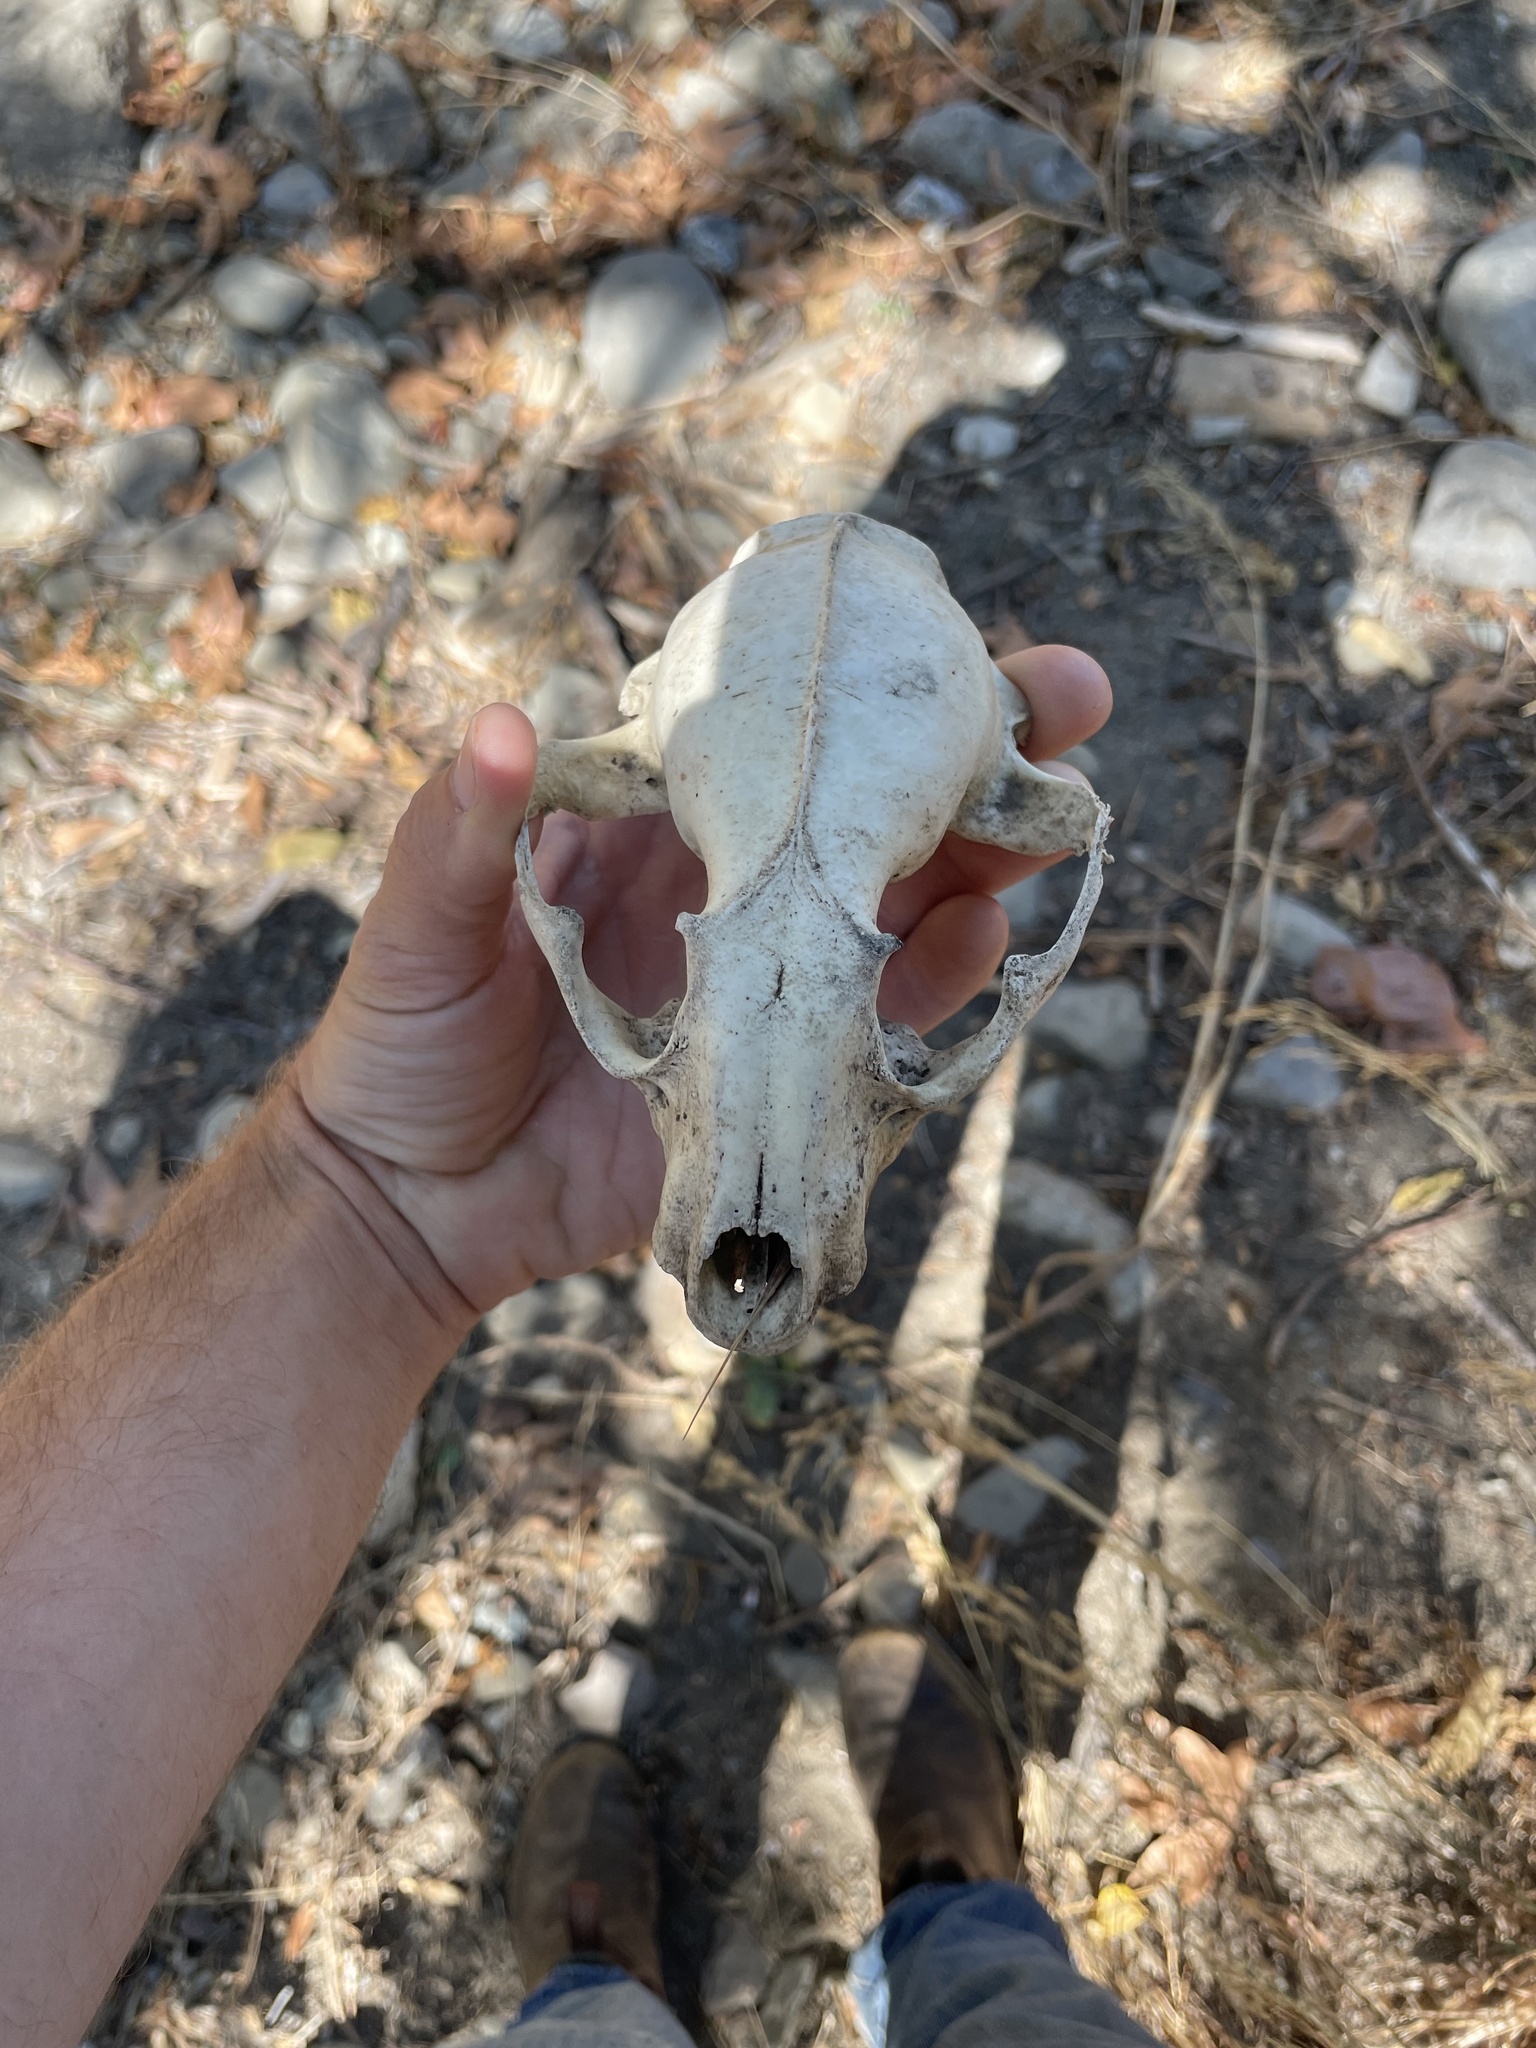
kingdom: Animalia
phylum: Chordata
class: Mammalia
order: Carnivora
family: Procyonidae
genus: Procyon
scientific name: Procyon lotor
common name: Raccoon
